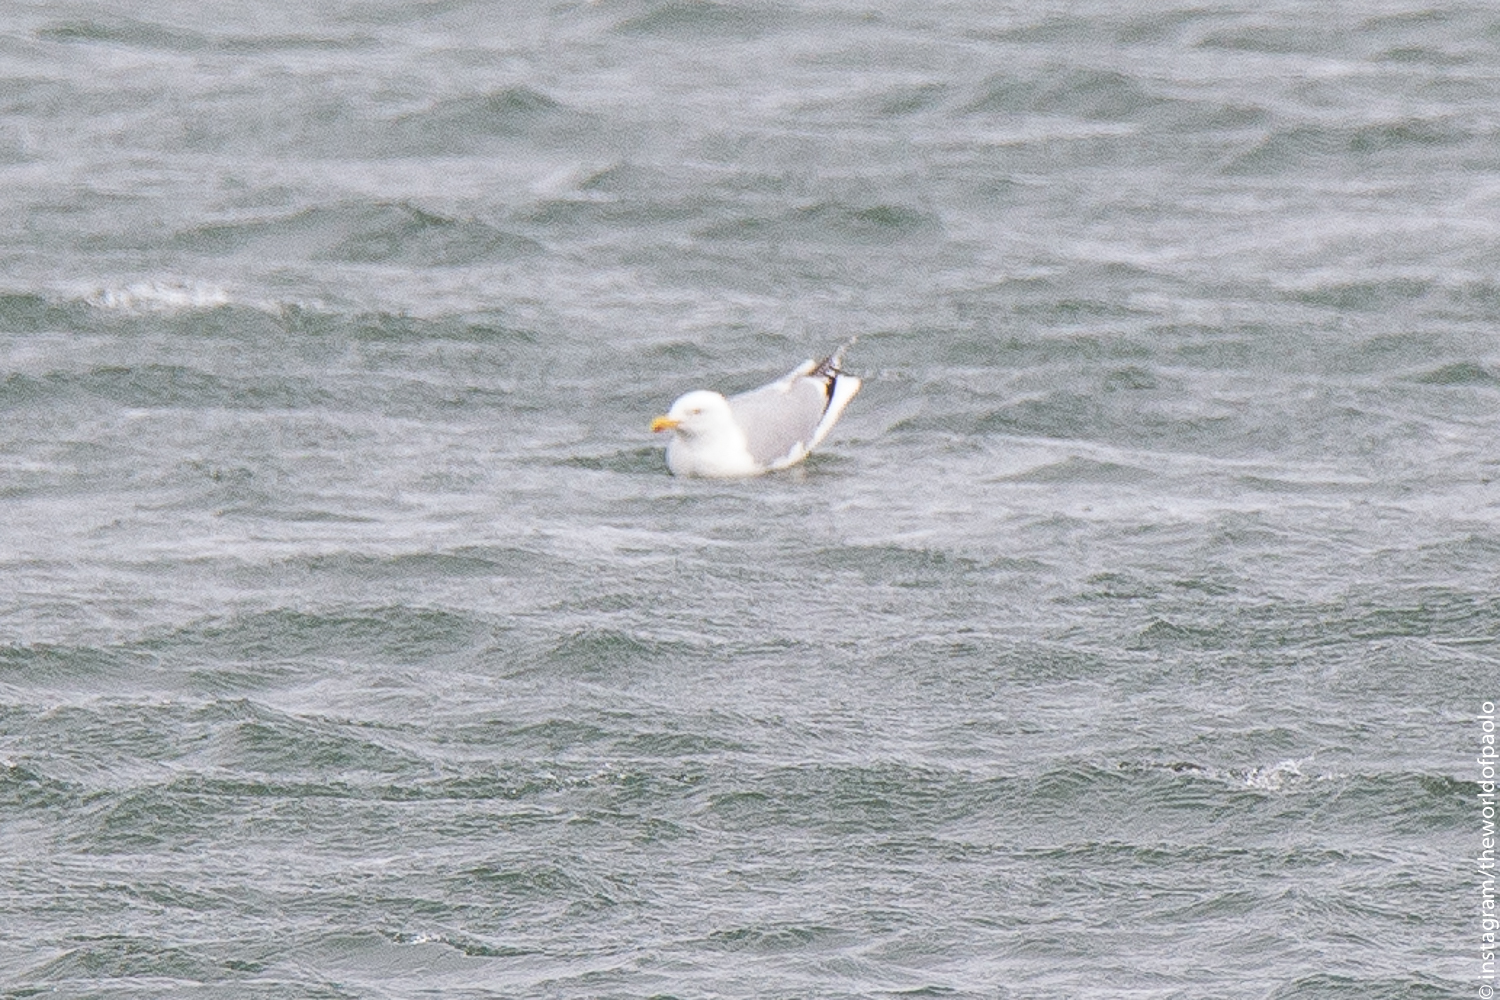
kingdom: Animalia
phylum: Chordata
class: Aves
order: Charadriiformes
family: Laridae
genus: Larus
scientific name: Larus argentatus
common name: Herring gull
